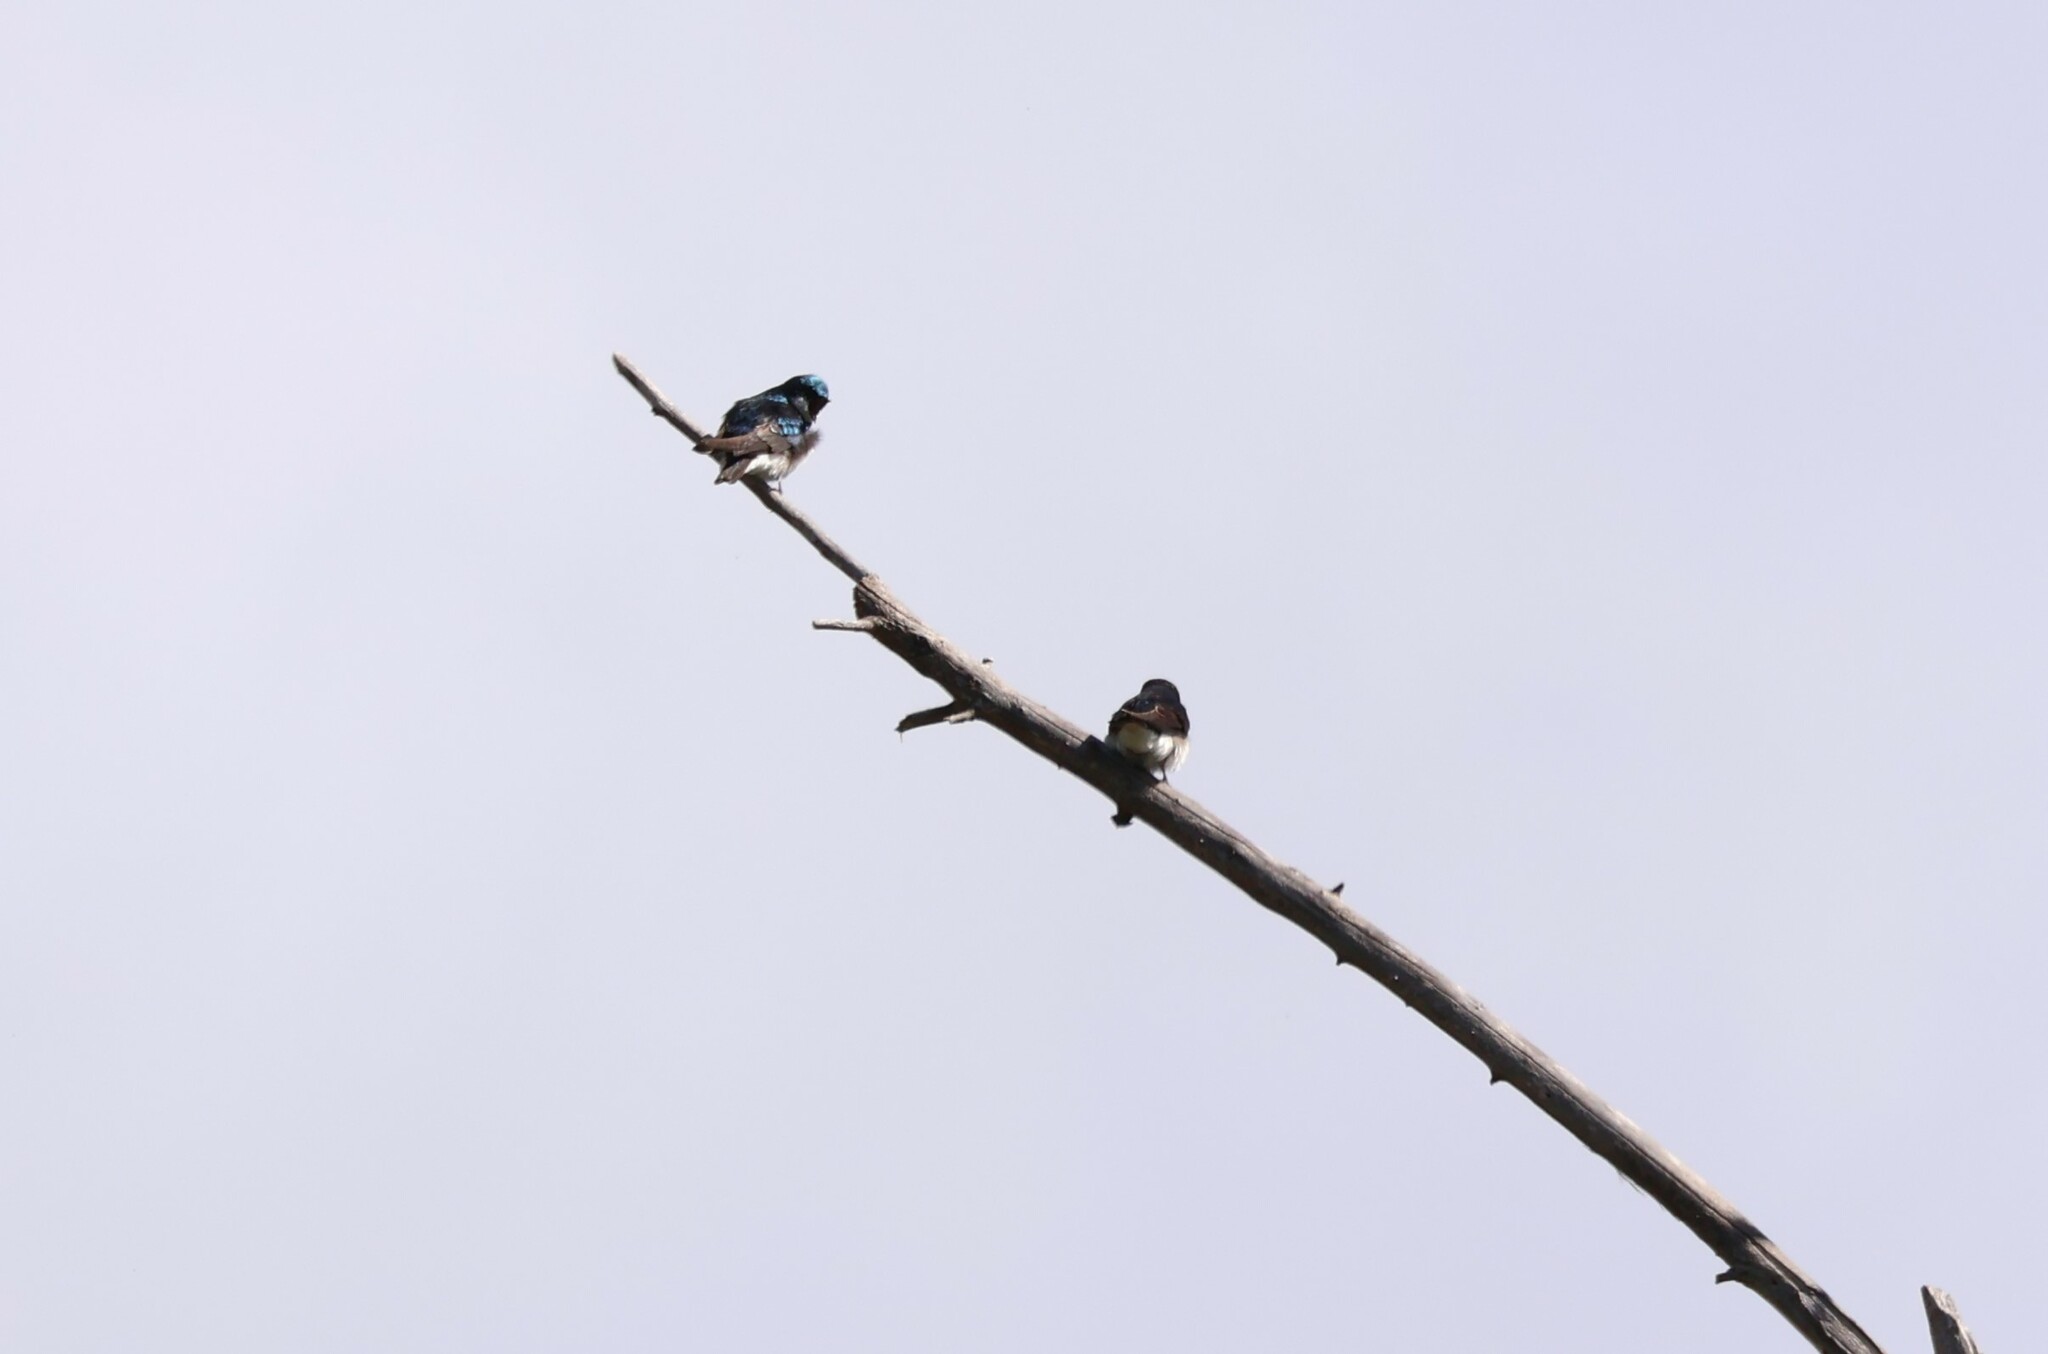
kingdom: Animalia
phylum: Chordata
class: Aves
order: Passeriformes
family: Hirundinidae
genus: Tachycineta
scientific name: Tachycineta bicolor
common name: Tree swallow
